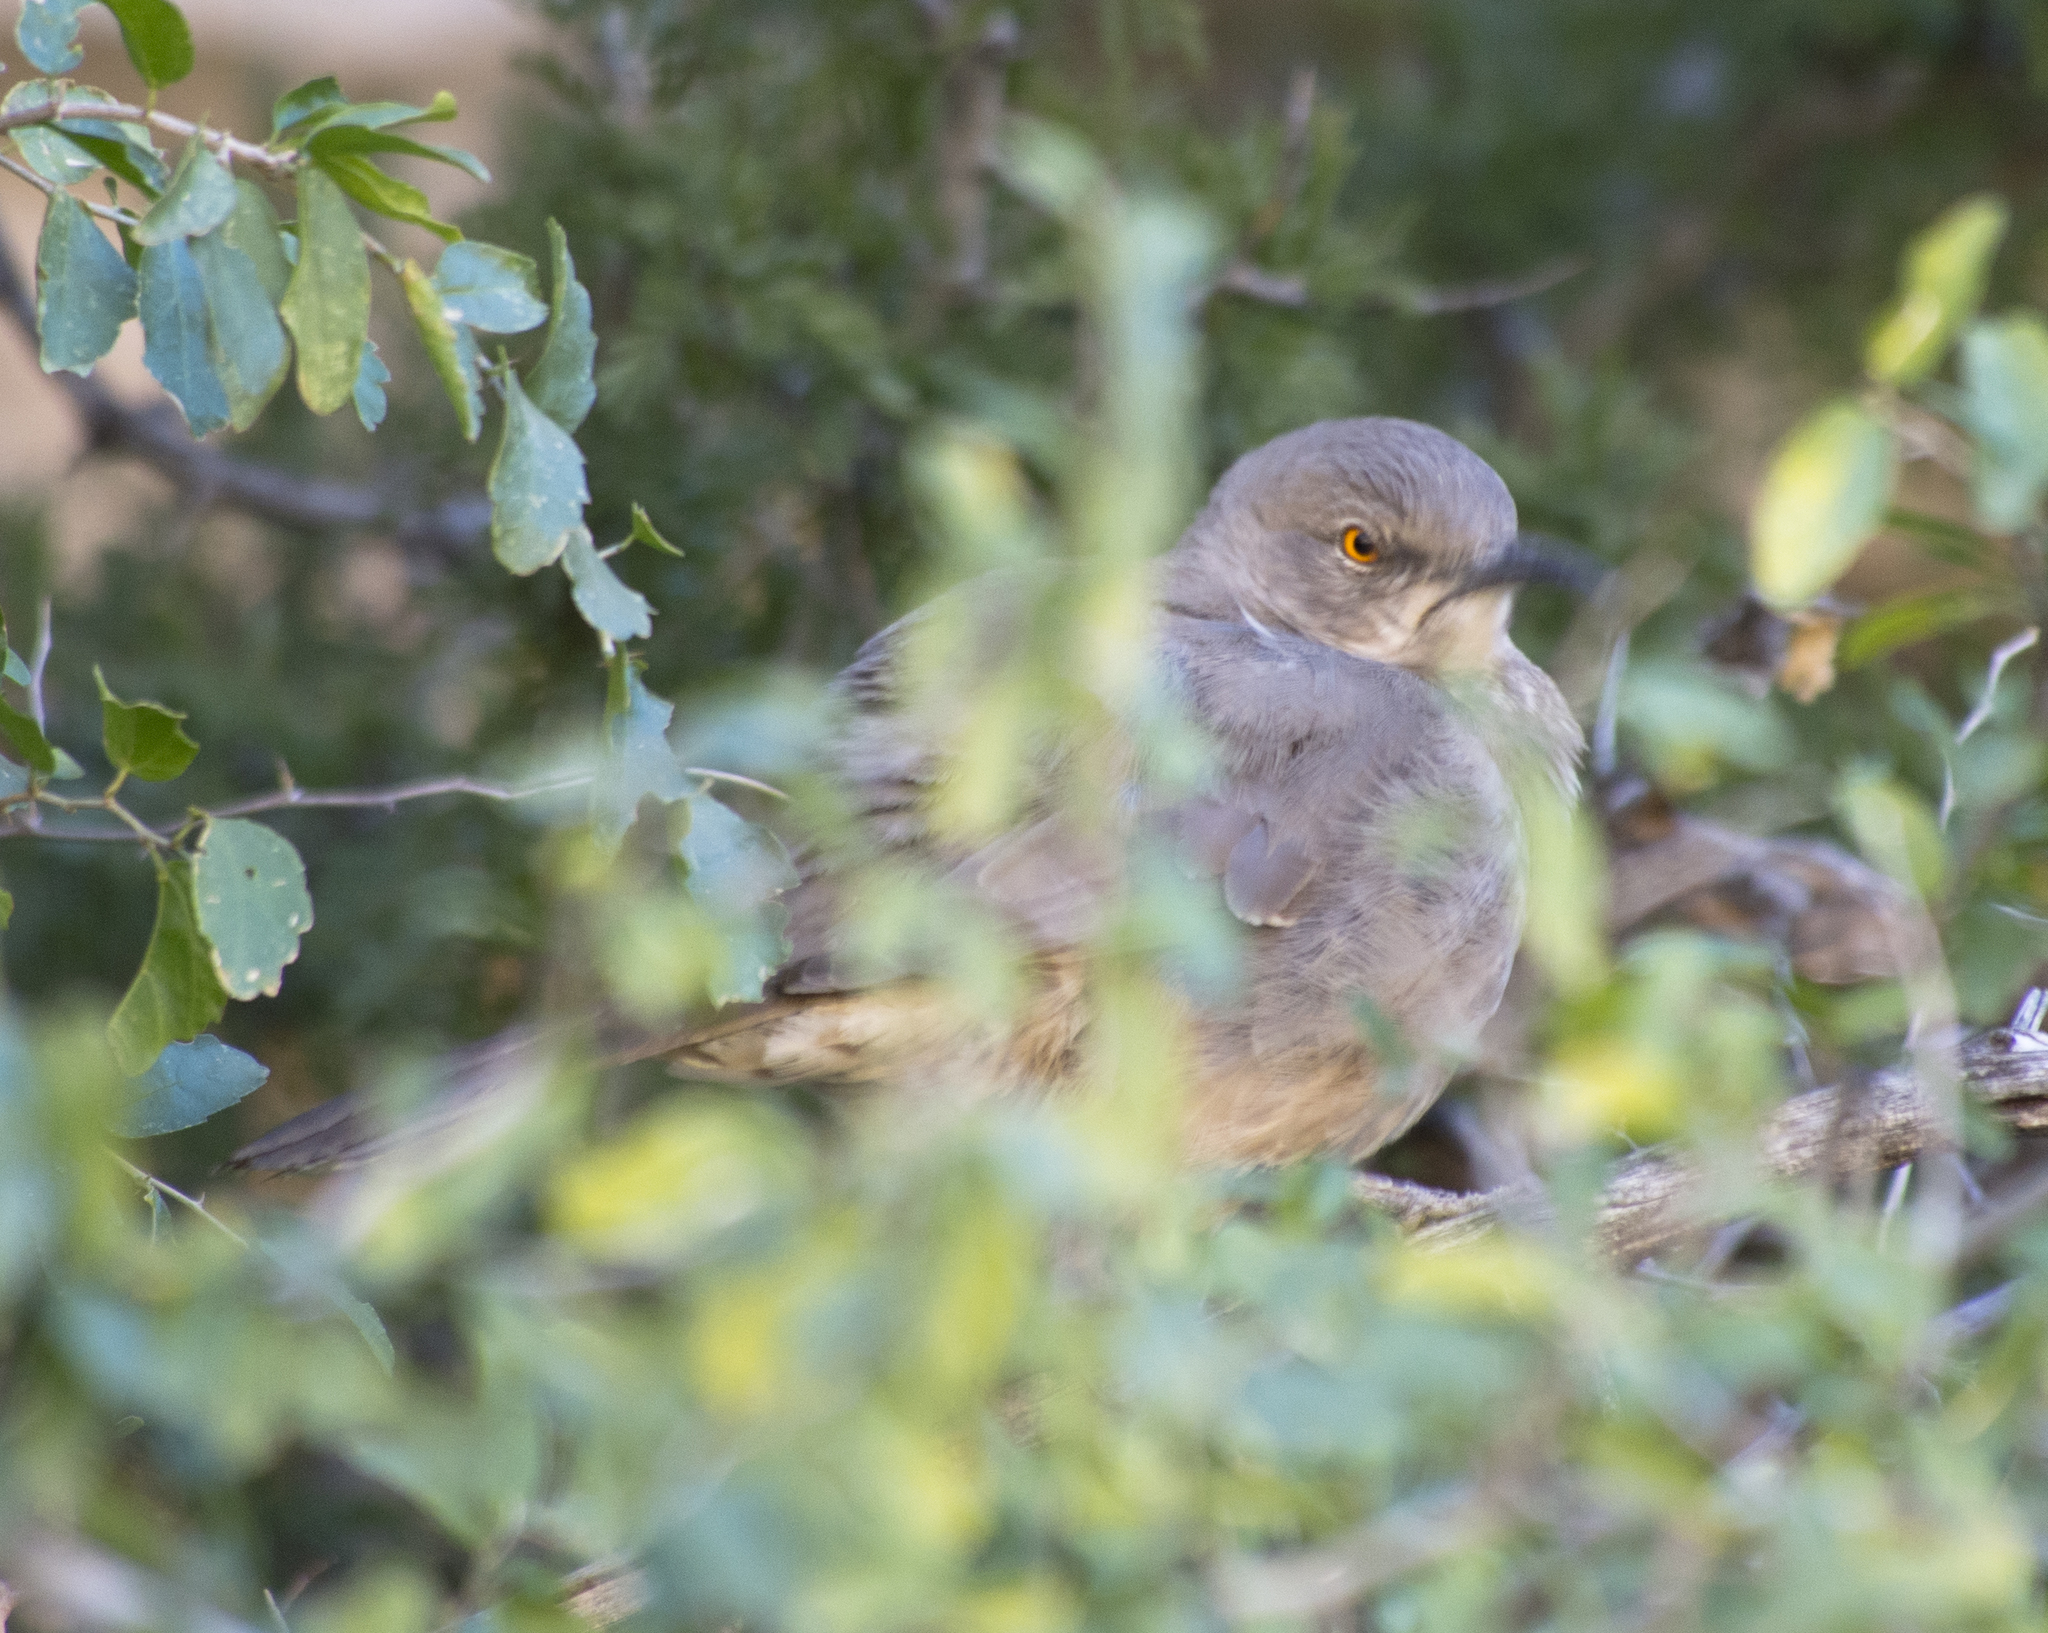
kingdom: Animalia
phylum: Chordata
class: Aves
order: Passeriformes
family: Mimidae
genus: Toxostoma
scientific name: Toxostoma curvirostre
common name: Curve-billed thrasher
